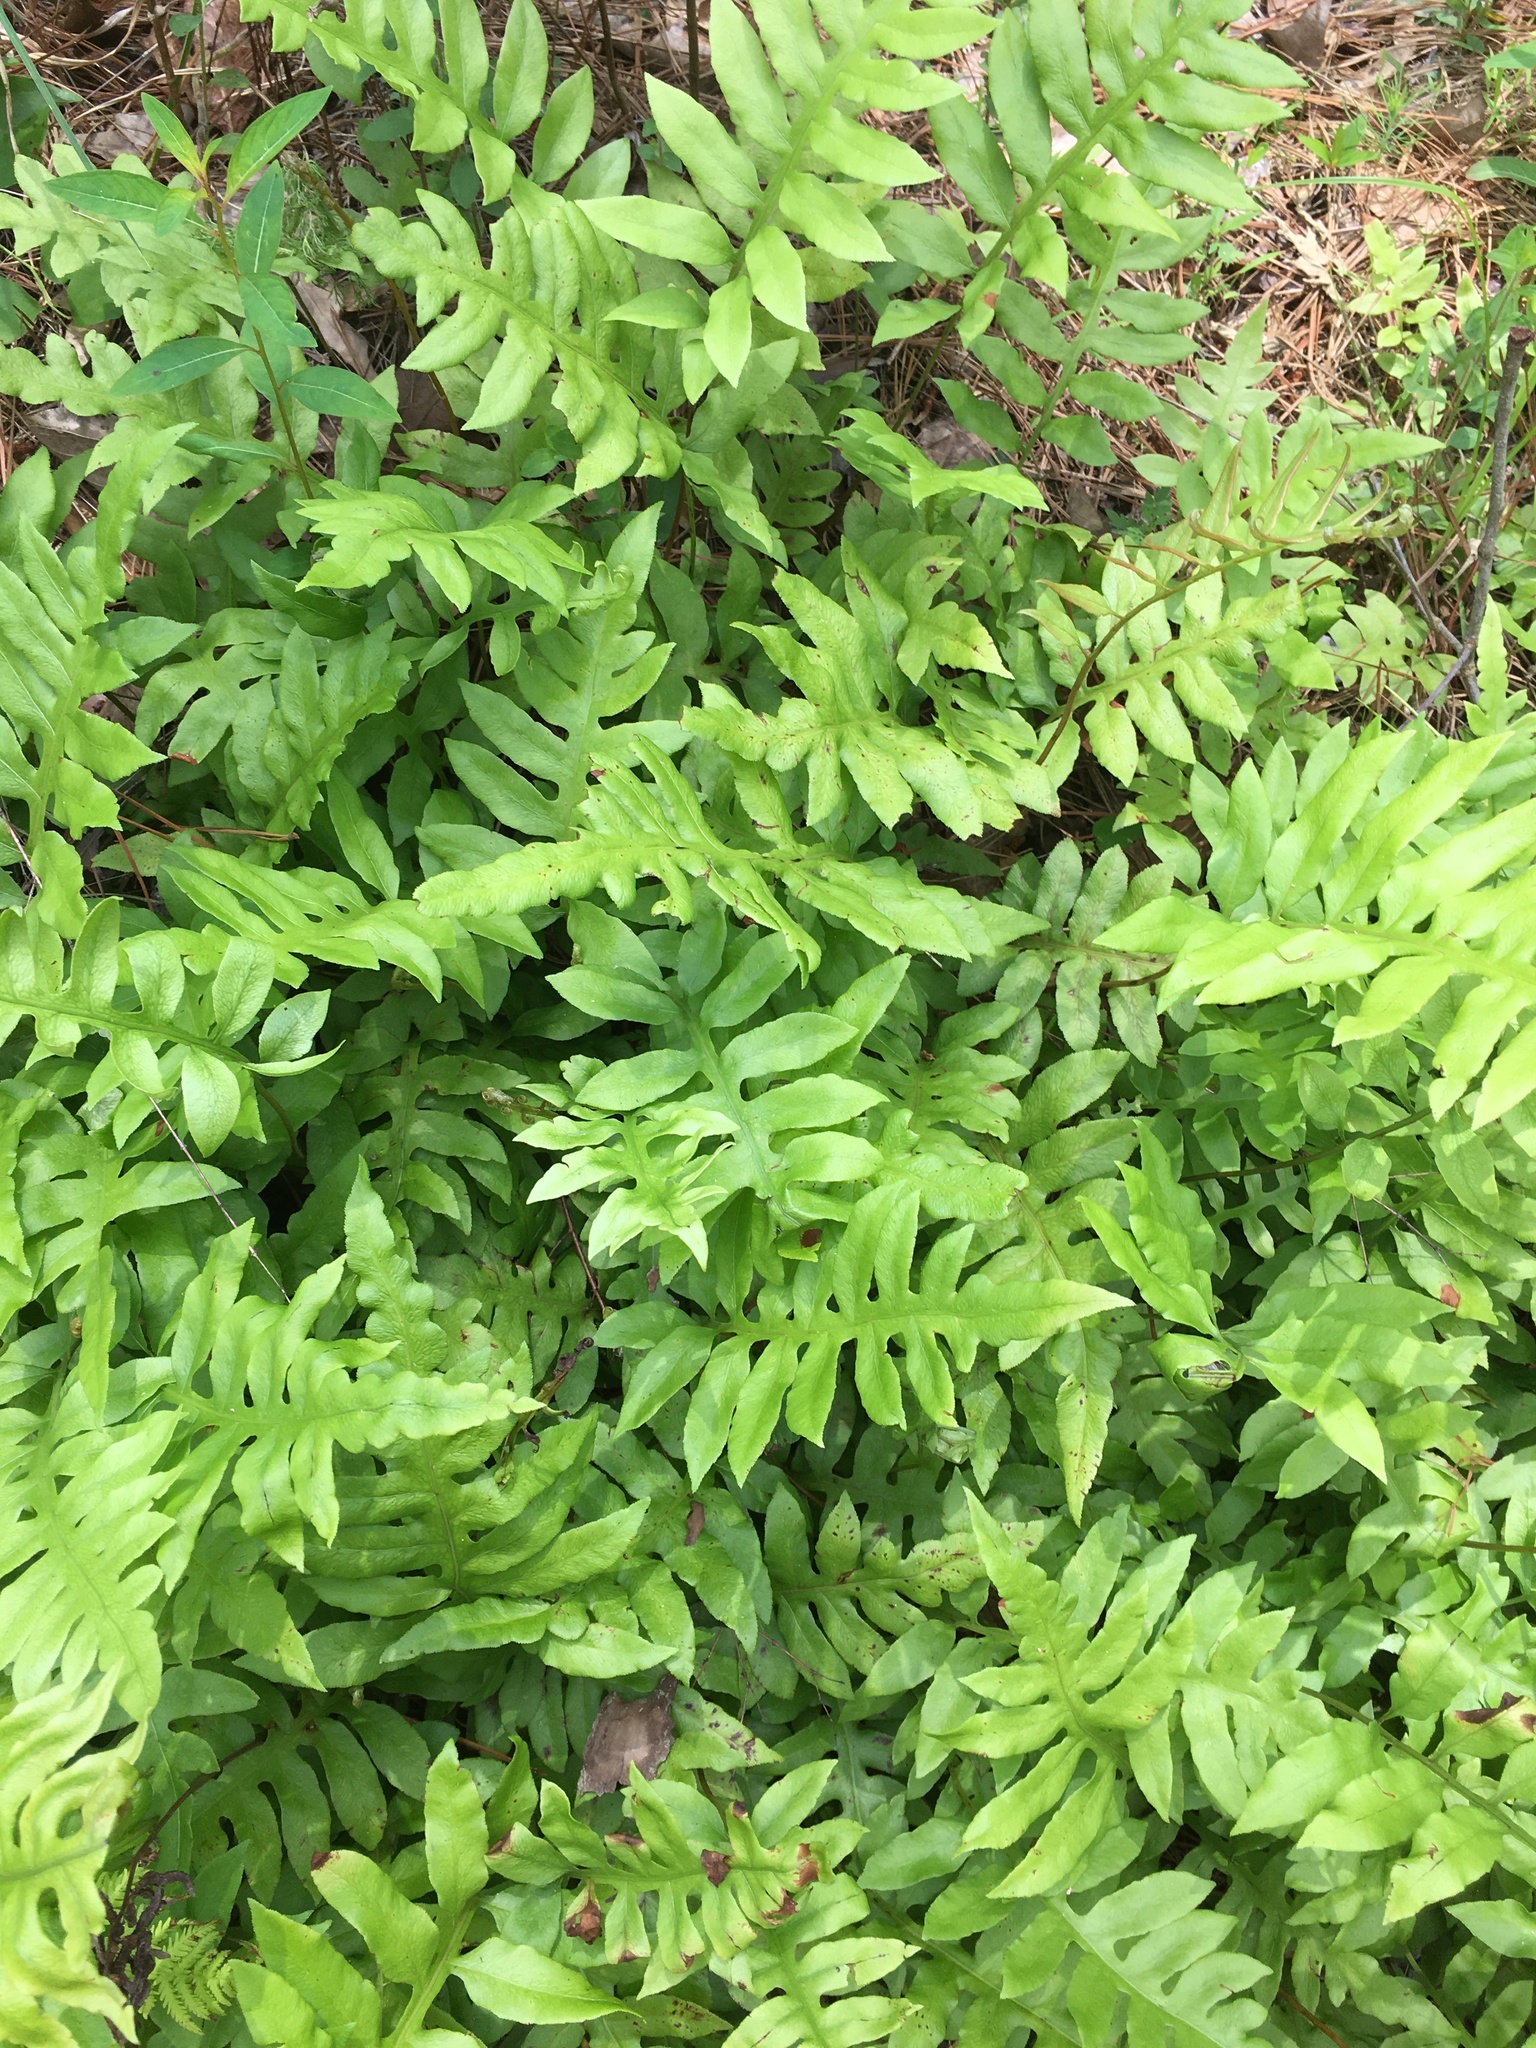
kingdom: Plantae
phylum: Tracheophyta
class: Polypodiopsida
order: Polypodiales
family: Blechnaceae
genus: Lorinseria
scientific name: Lorinseria areolata
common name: Dwarf chain fern
